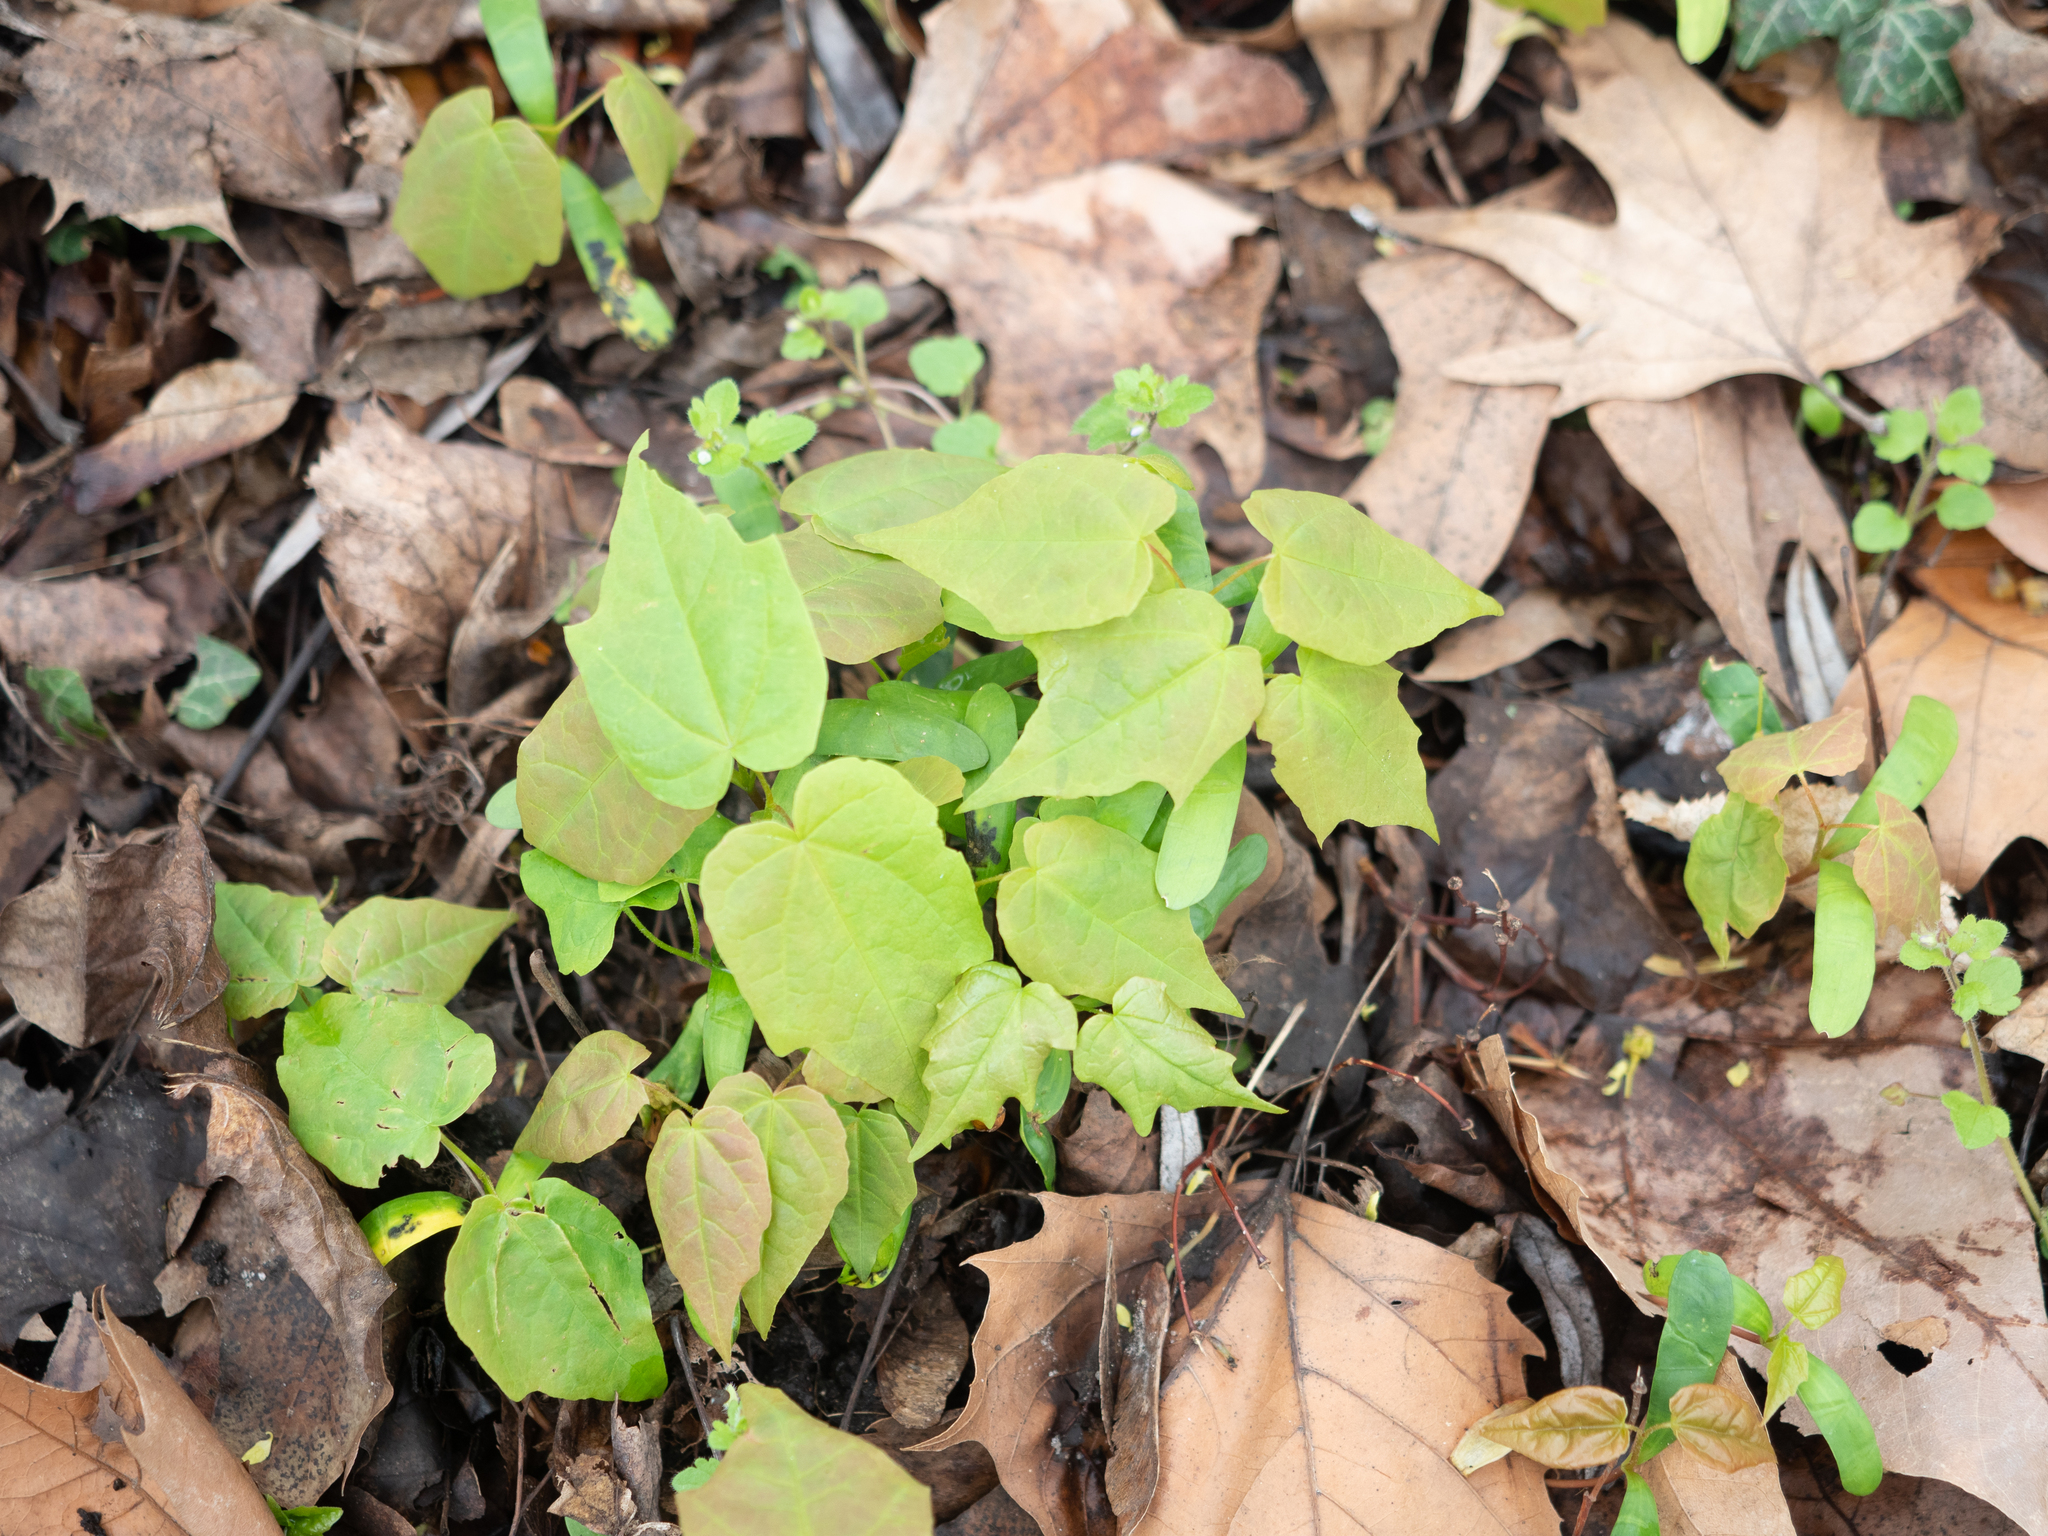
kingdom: Plantae
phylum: Tracheophyta
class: Magnoliopsida
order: Sapindales
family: Sapindaceae
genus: Acer
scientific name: Acer platanoides
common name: Norway maple
